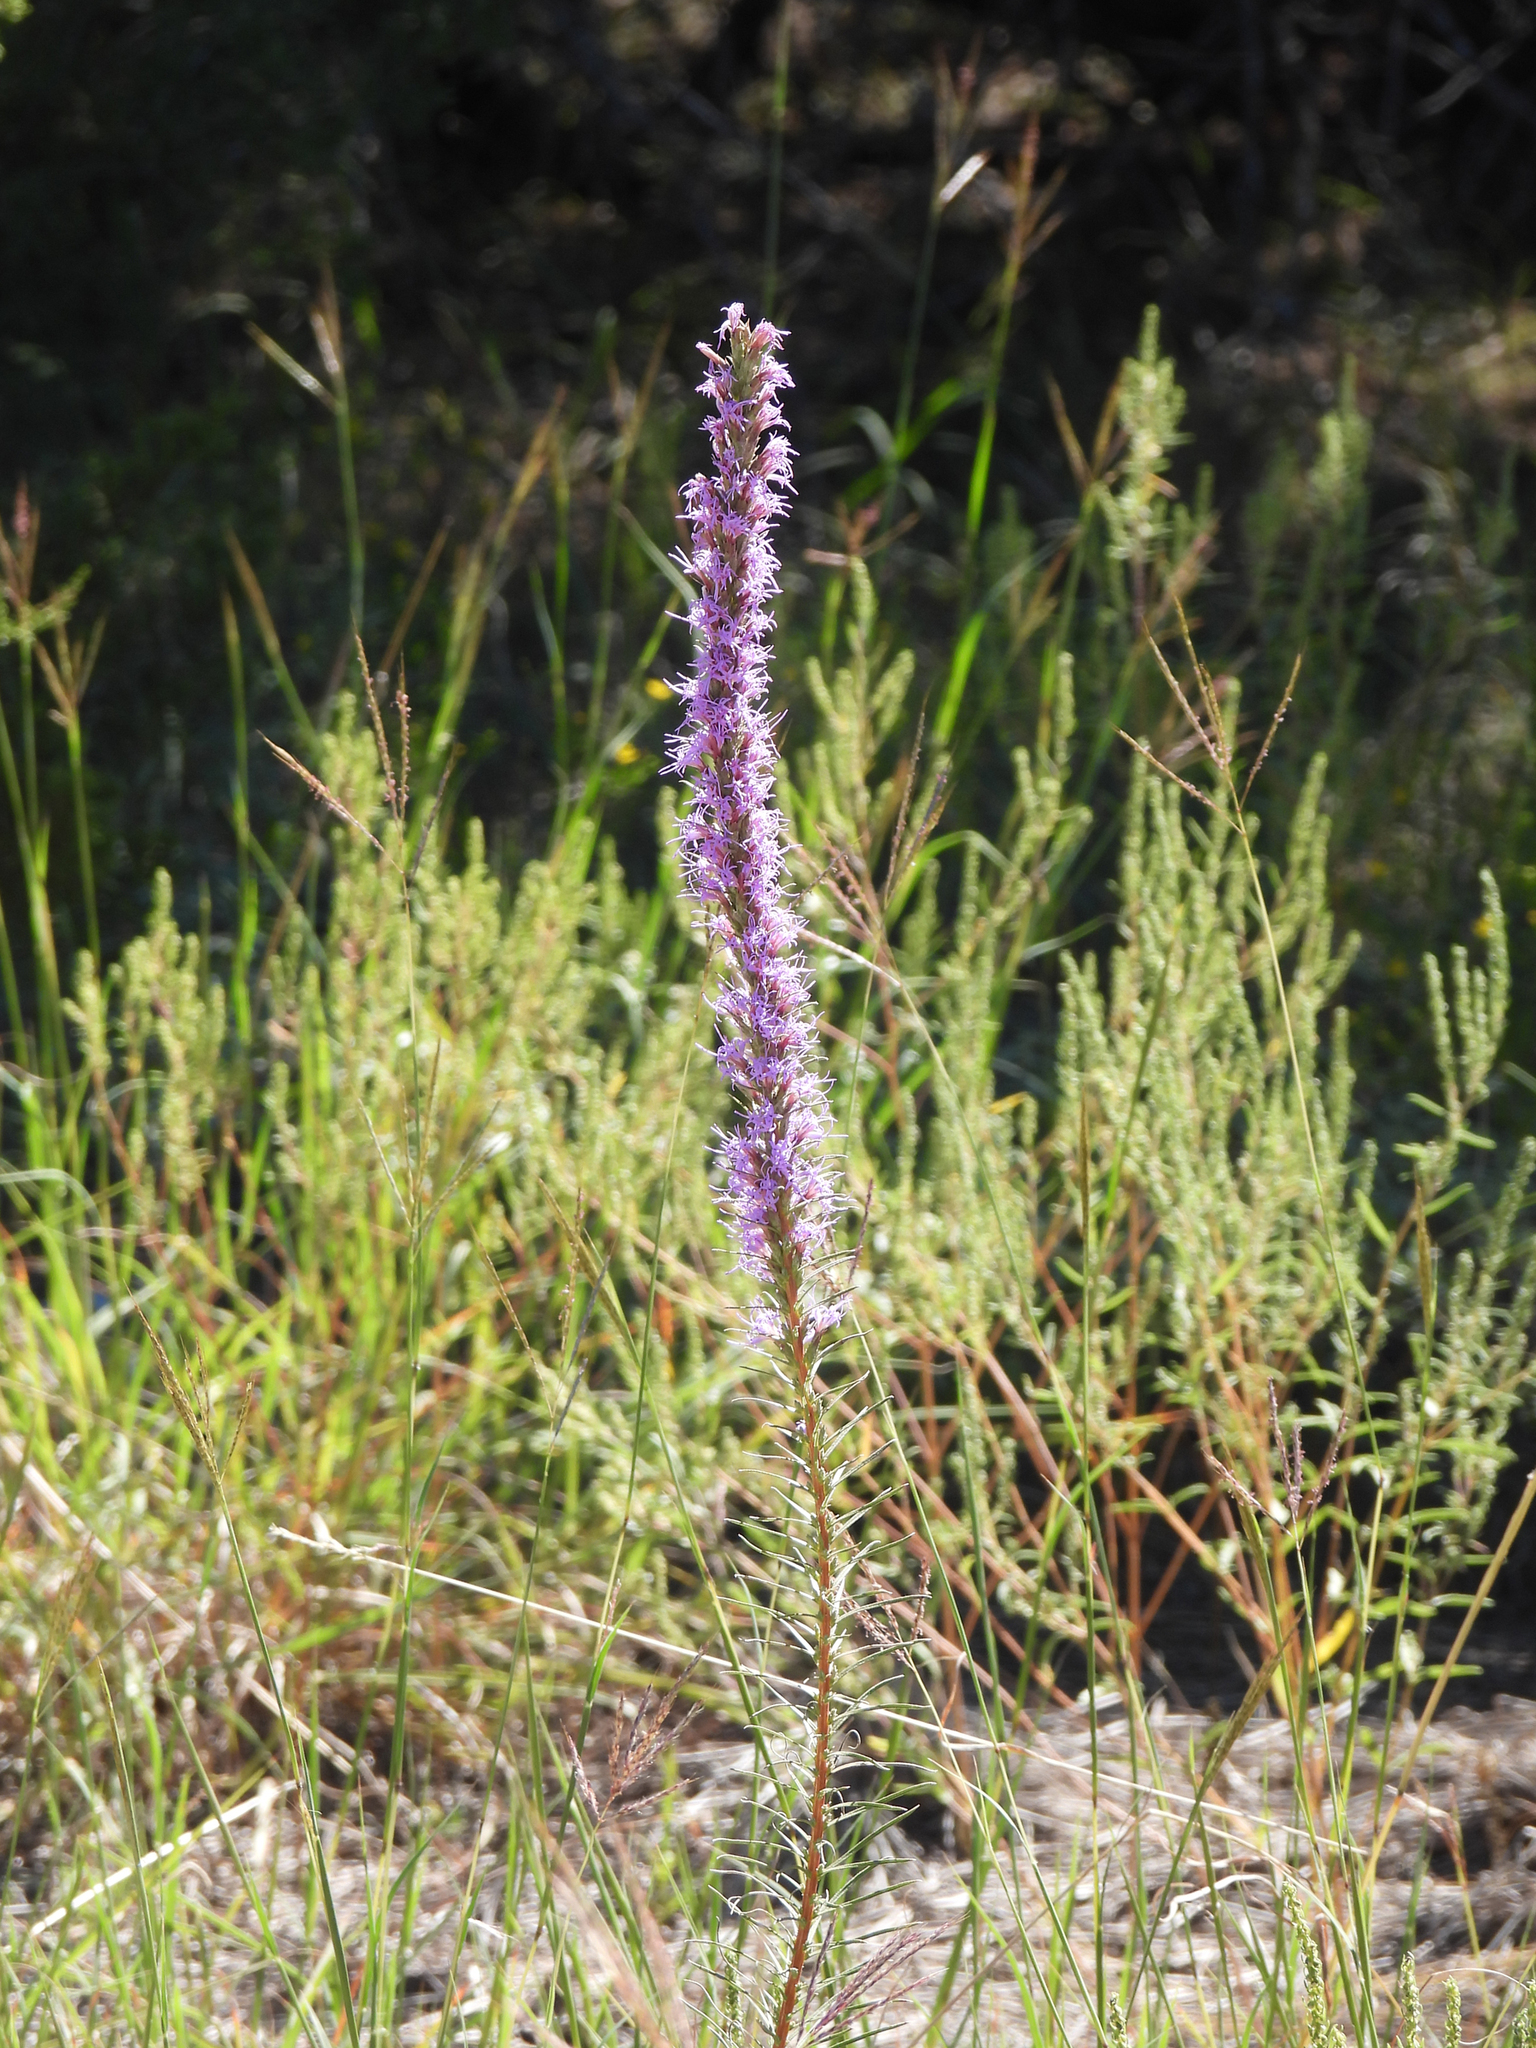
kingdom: Plantae
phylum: Tracheophyta
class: Magnoliopsida
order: Asterales
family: Asteraceae
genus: Liatris
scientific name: Liatris punctata
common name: Dotted gayfeather
